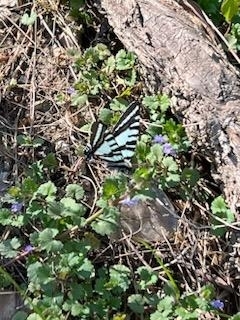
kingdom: Animalia
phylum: Arthropoda
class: Insecta
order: Lepidoptera
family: Papilionidae
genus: Protographium
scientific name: Protographium marcellus
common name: Zebra swallowtail
